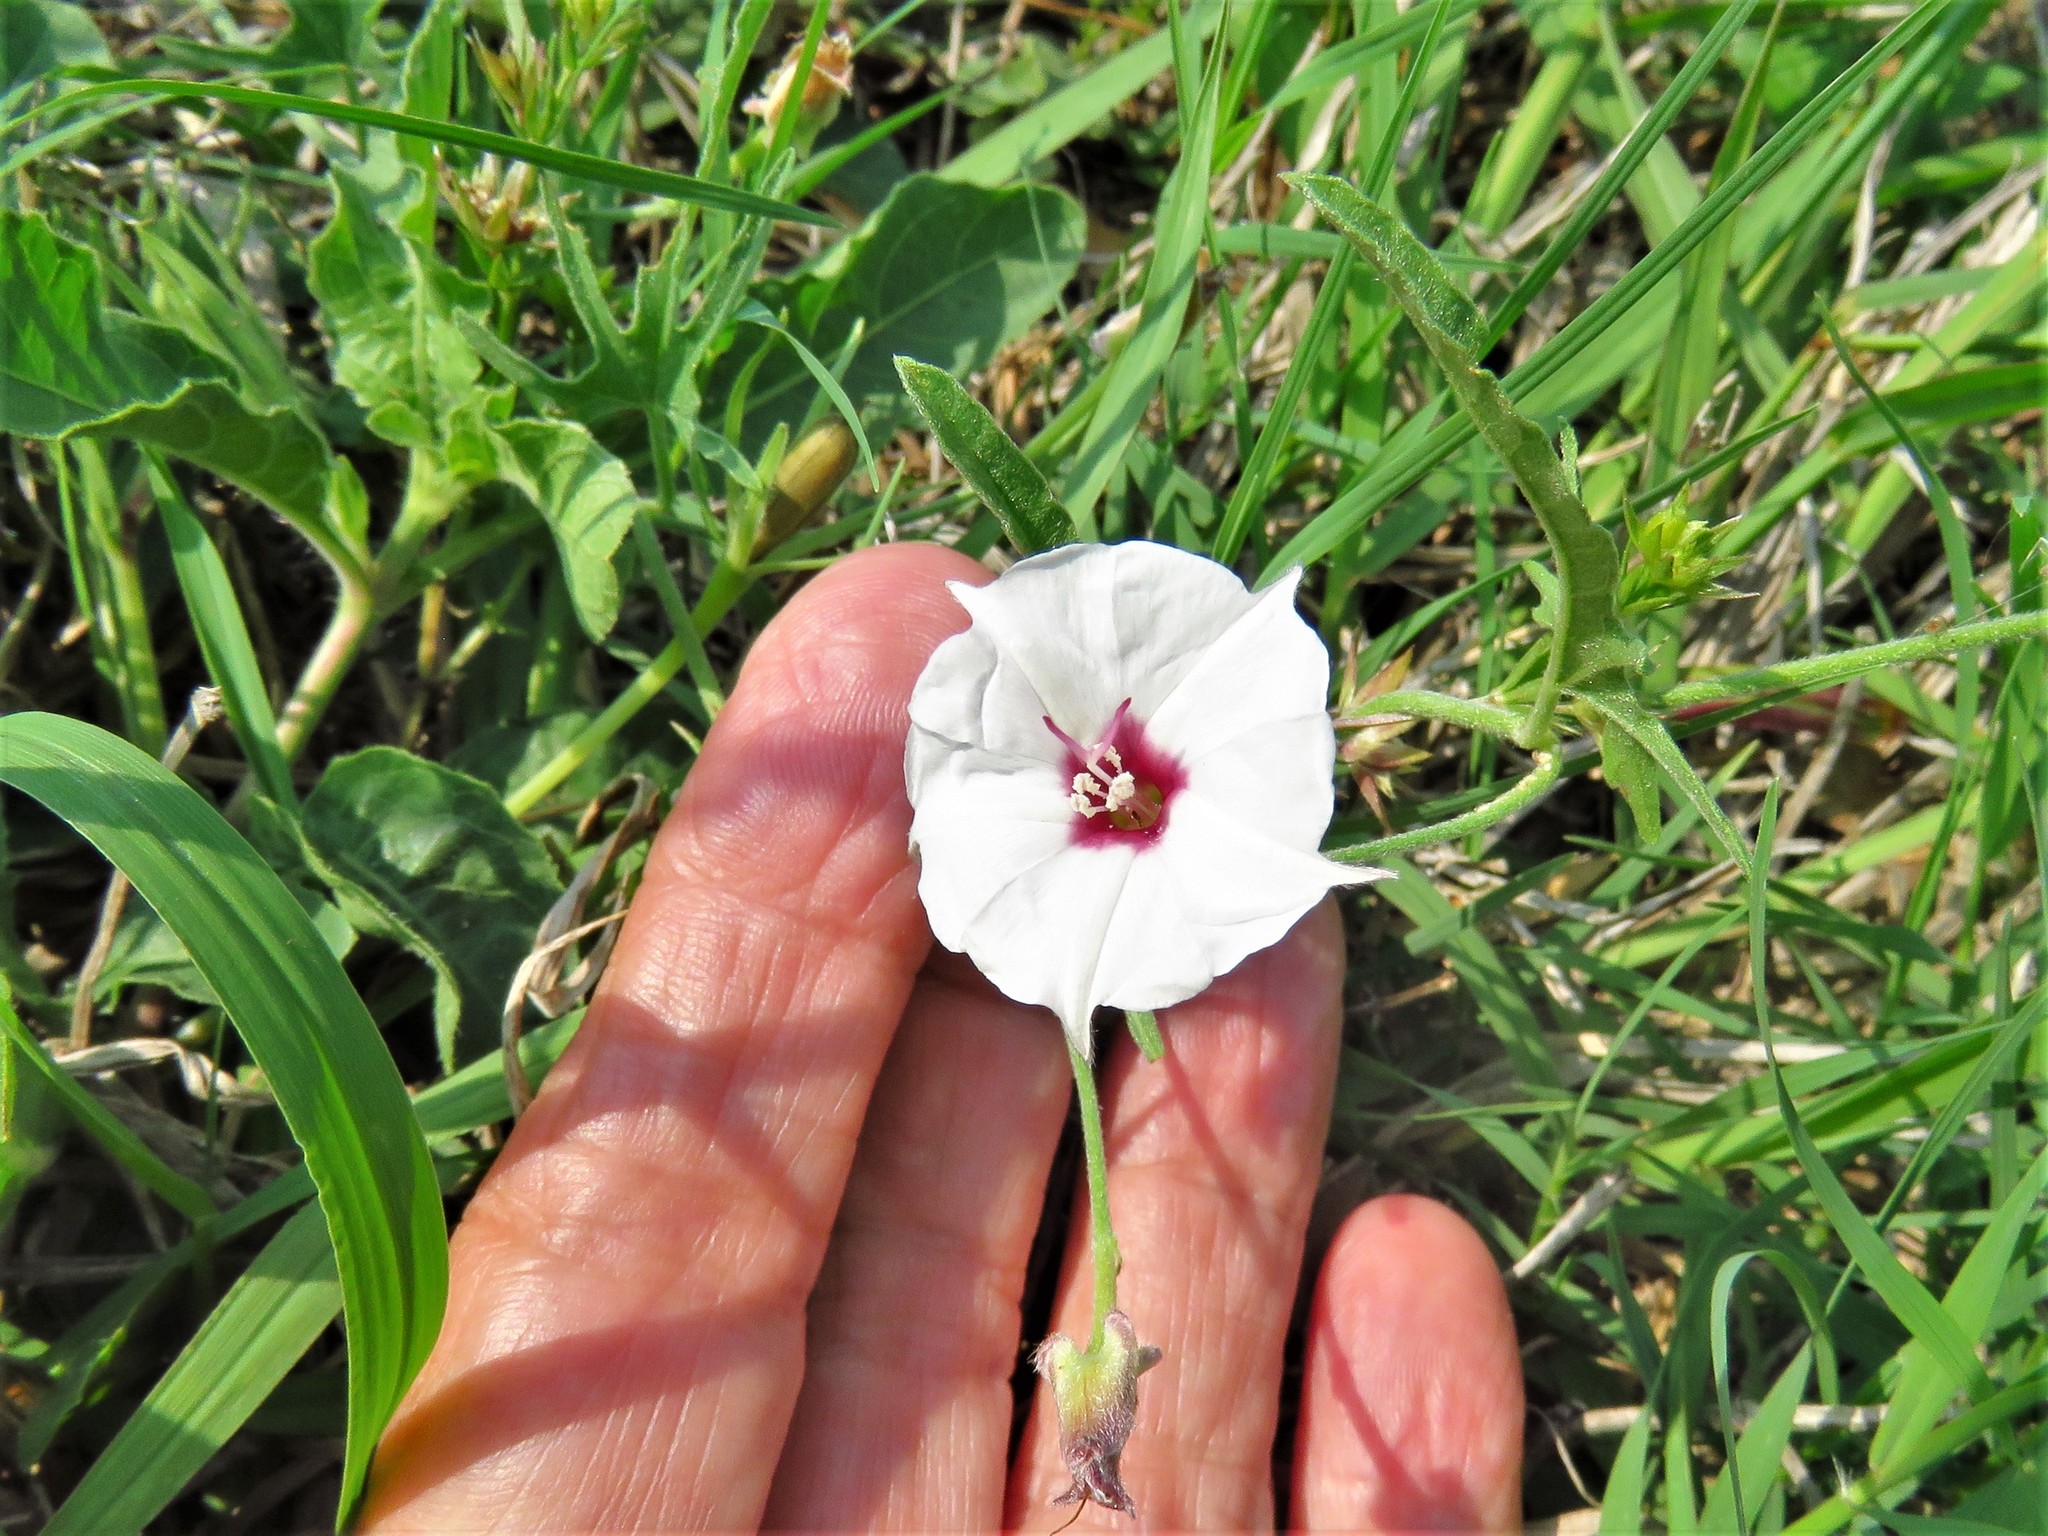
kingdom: Plantae
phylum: Tracheophyta
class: Magnoliopsida
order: Solanales
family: Convolvulaceae
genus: Convolvulus
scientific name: Convolvulus equitans
